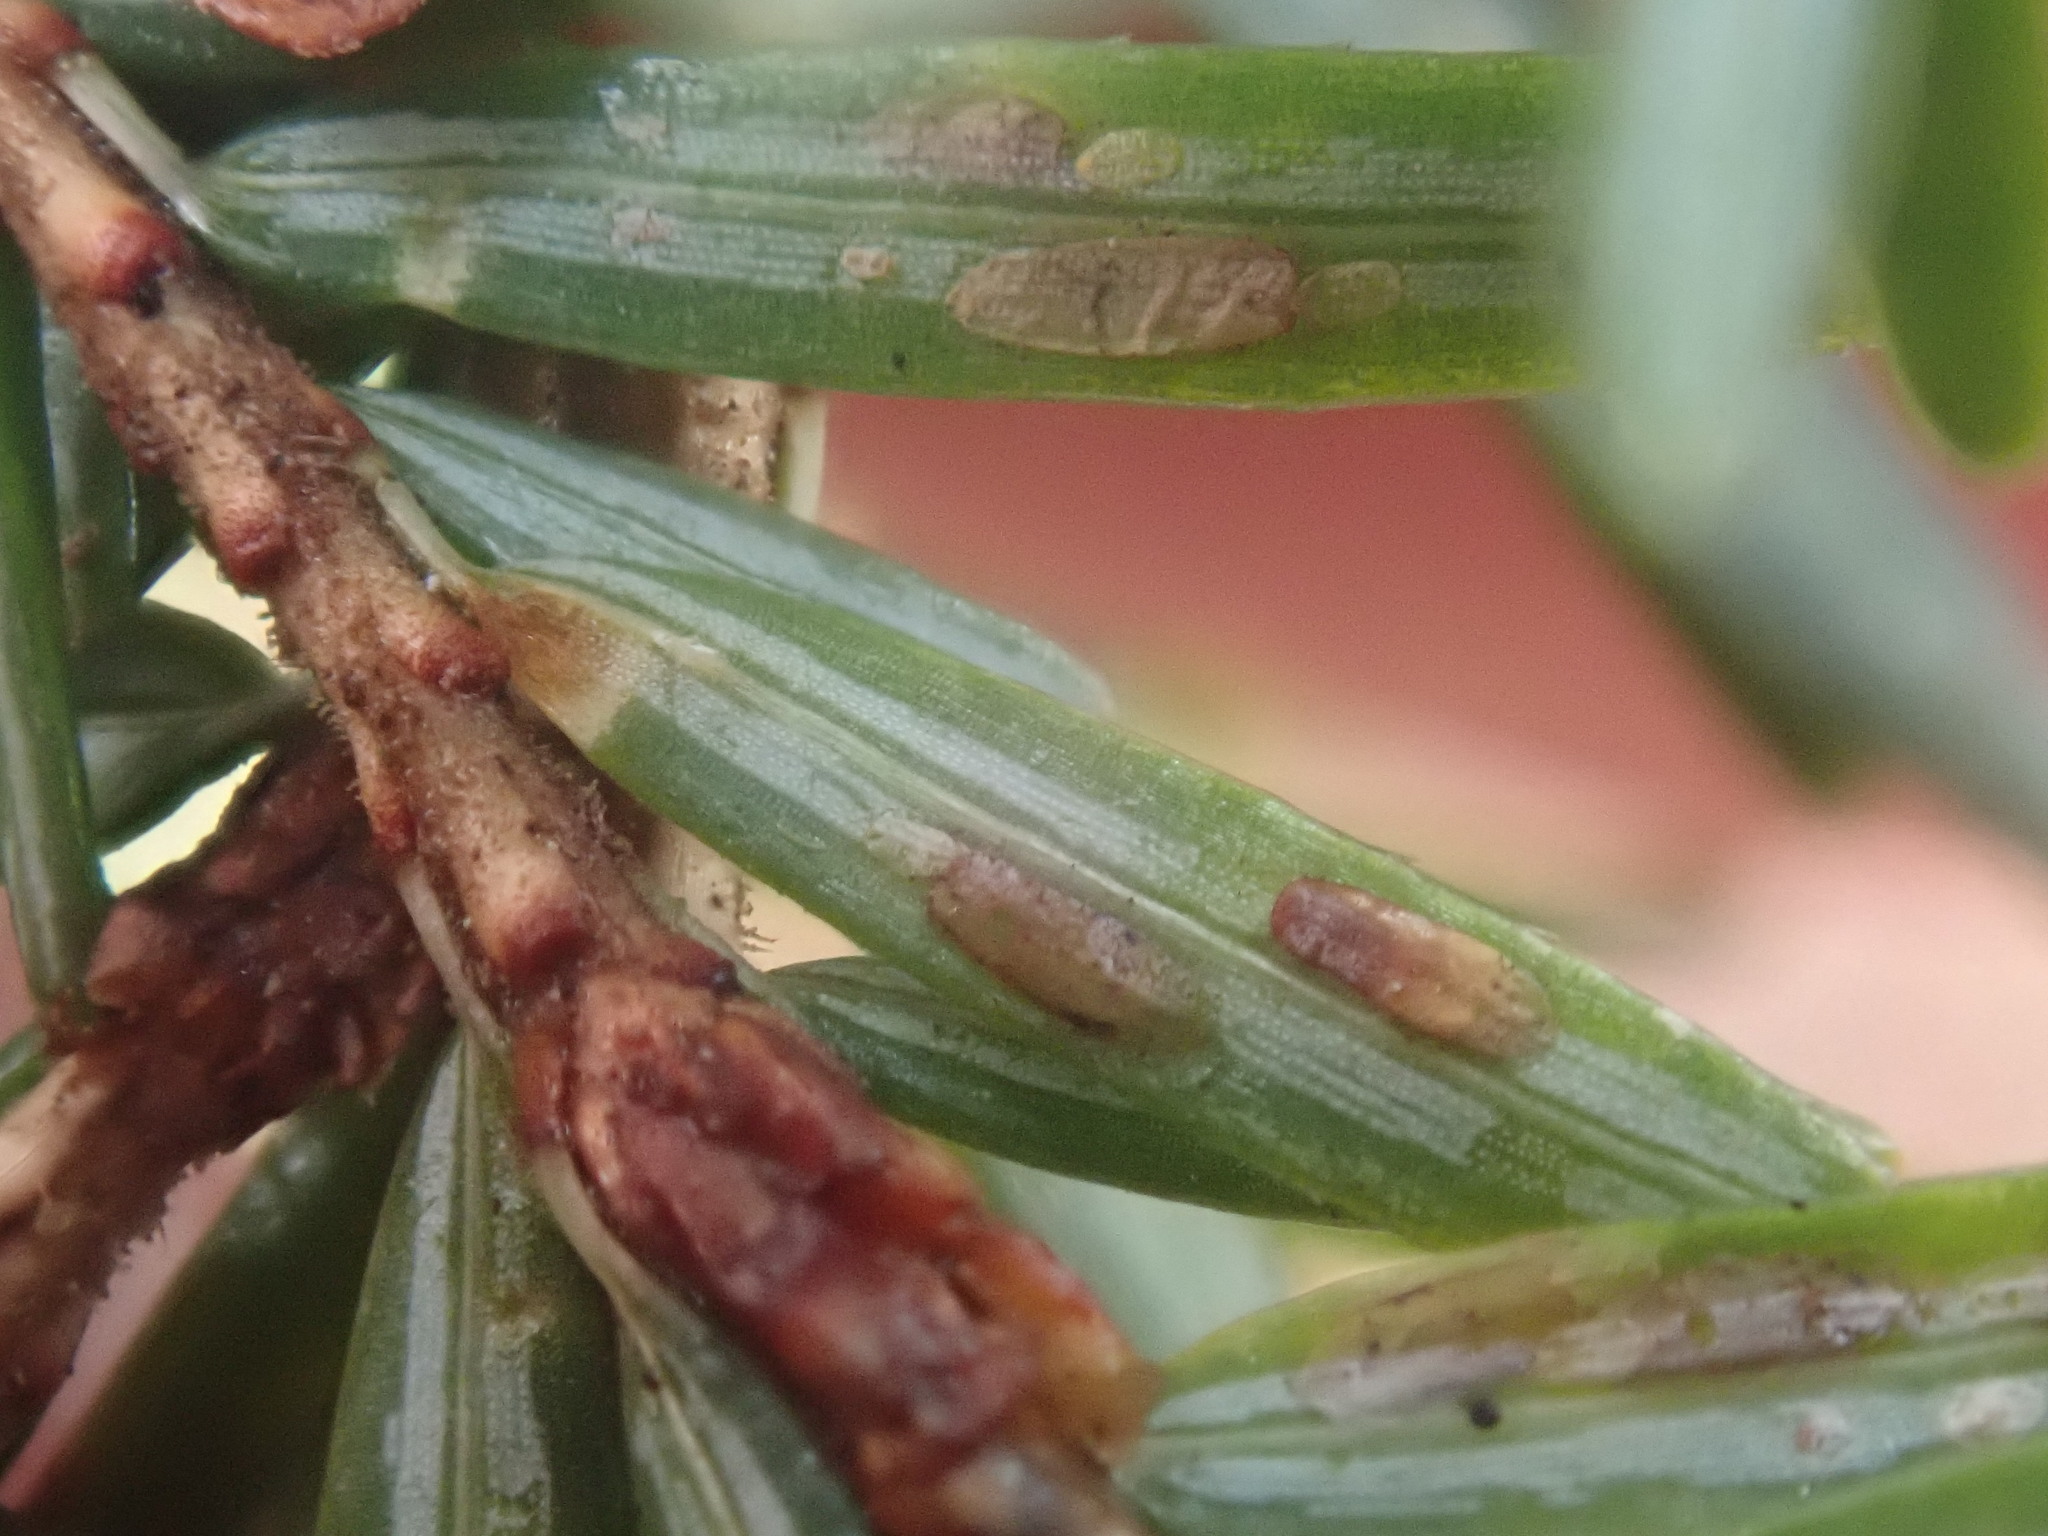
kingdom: Animalia
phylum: Arthropoda
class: Insecta
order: Hemiptera
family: Diaspididae
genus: Fiorinia
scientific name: Fiorinia externa
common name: Elongate hemlock scale
